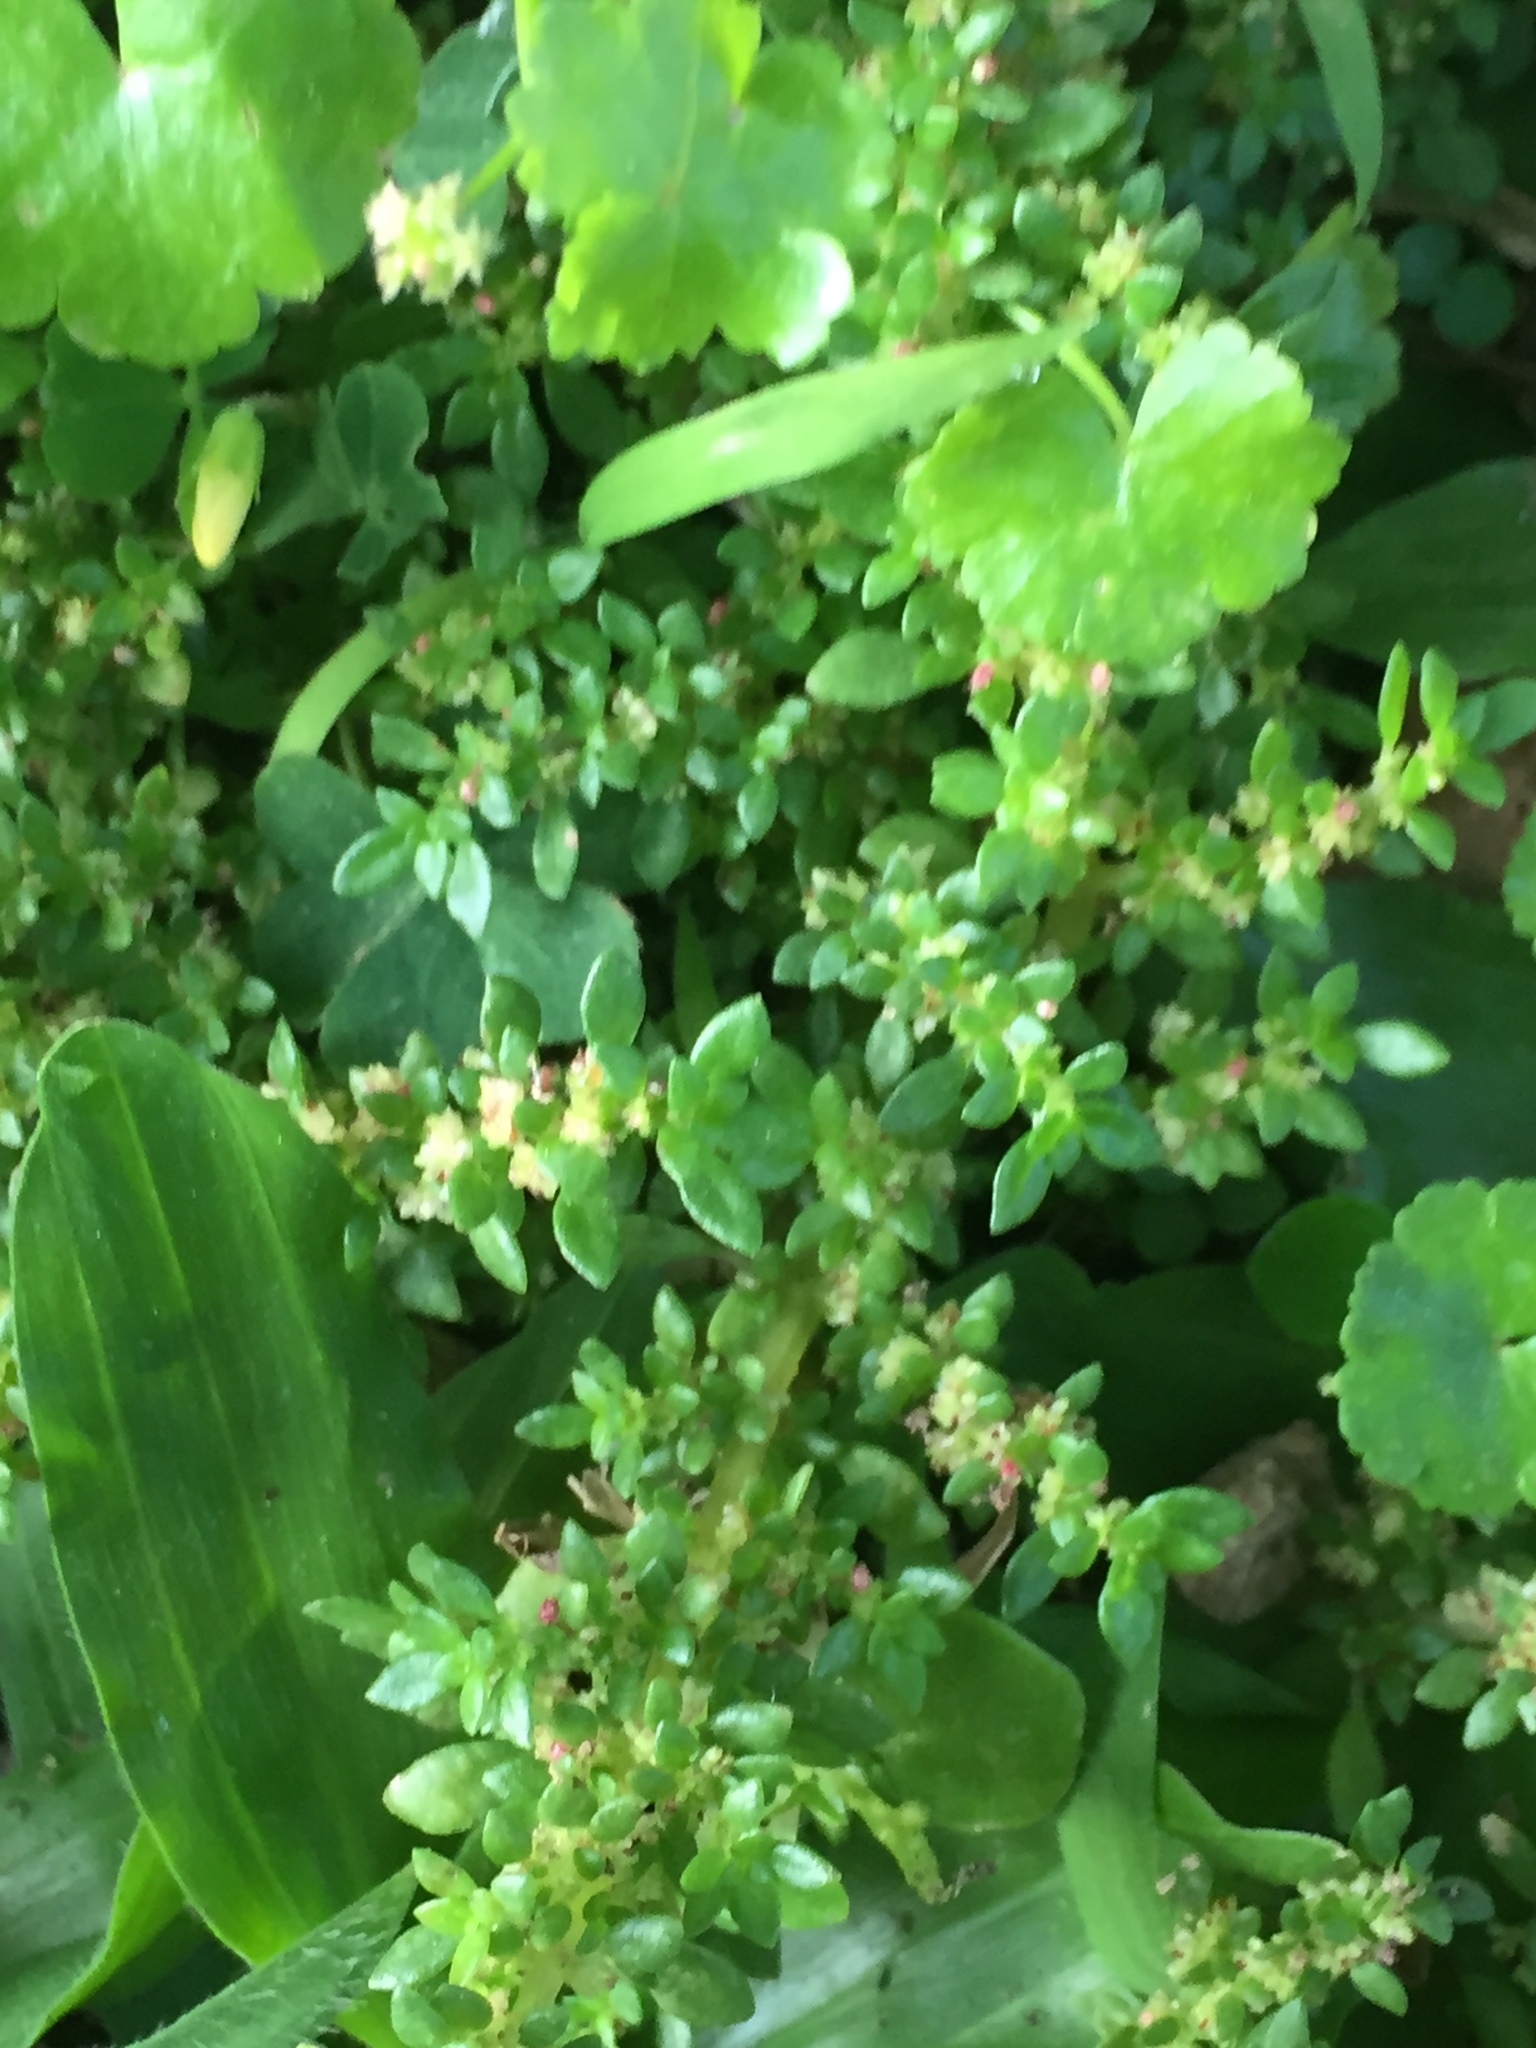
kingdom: Plantae
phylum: Tracheophyta
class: Magnoliopsida
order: Rosales
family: Urticaceae
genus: Pilea
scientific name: Pilea microphylla
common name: Artillery-plant
